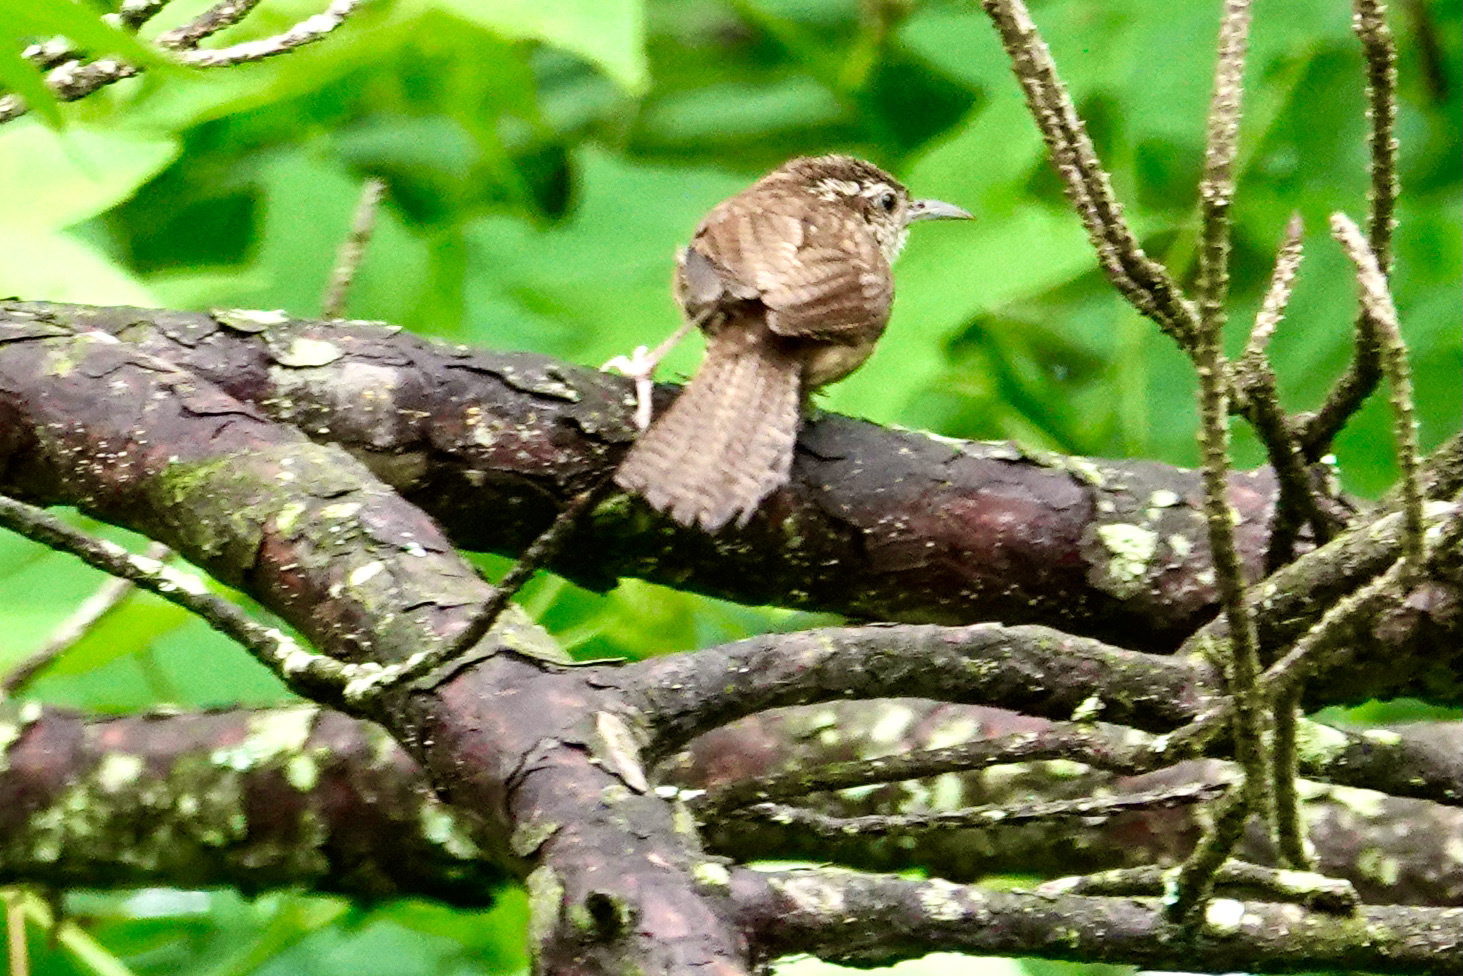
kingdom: Animalia
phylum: Chordata
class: Aves
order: Passeriformes
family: Troglodytidae
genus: Thryothorus
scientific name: Thryothorus ludovicianus
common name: Carolina wren
